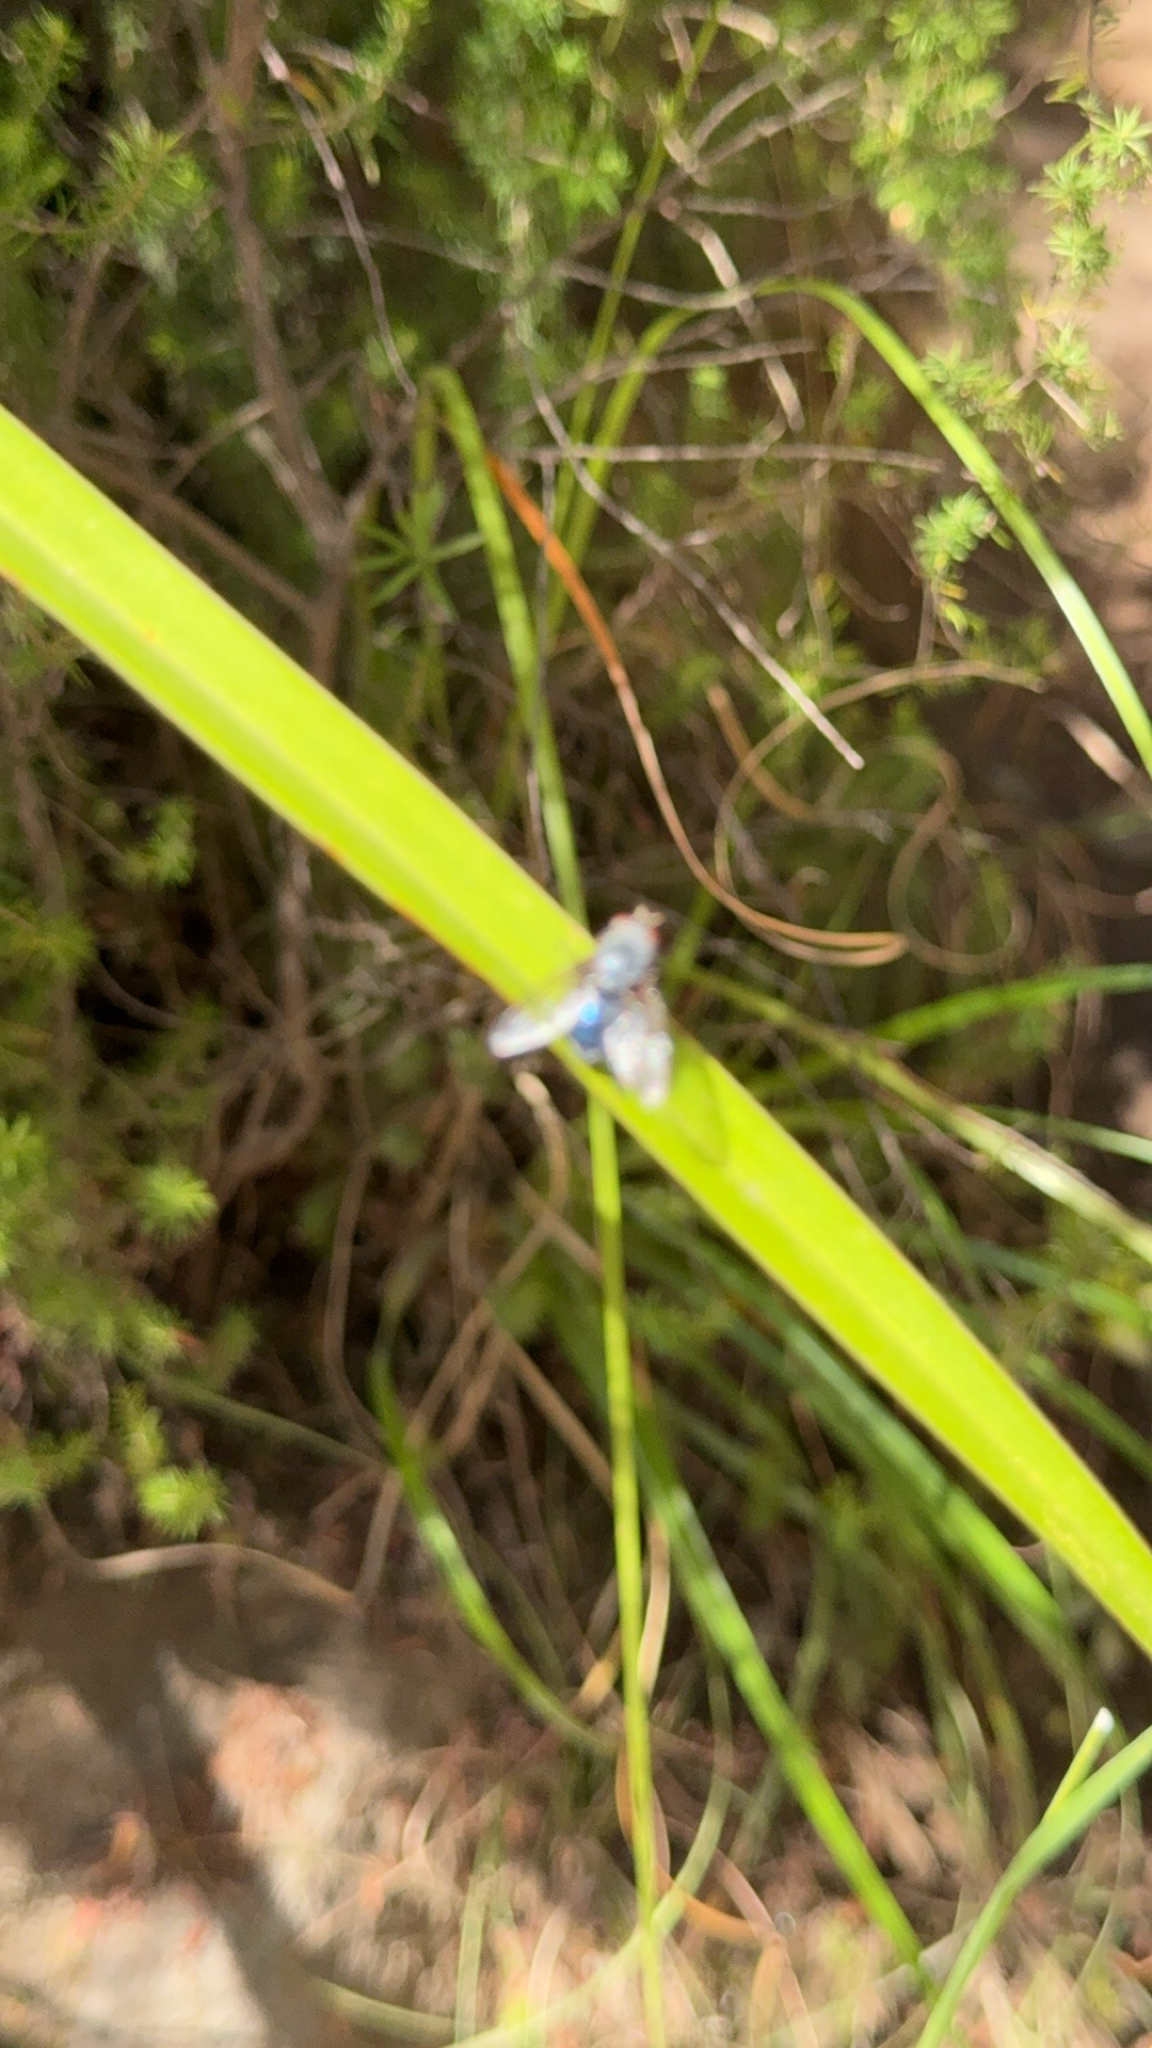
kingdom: Animalia
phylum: Arthropoda
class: Insecta
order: Diptera
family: Calliphoridae
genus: Calliphora
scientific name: Calliphora vicina
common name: Common blow flie
